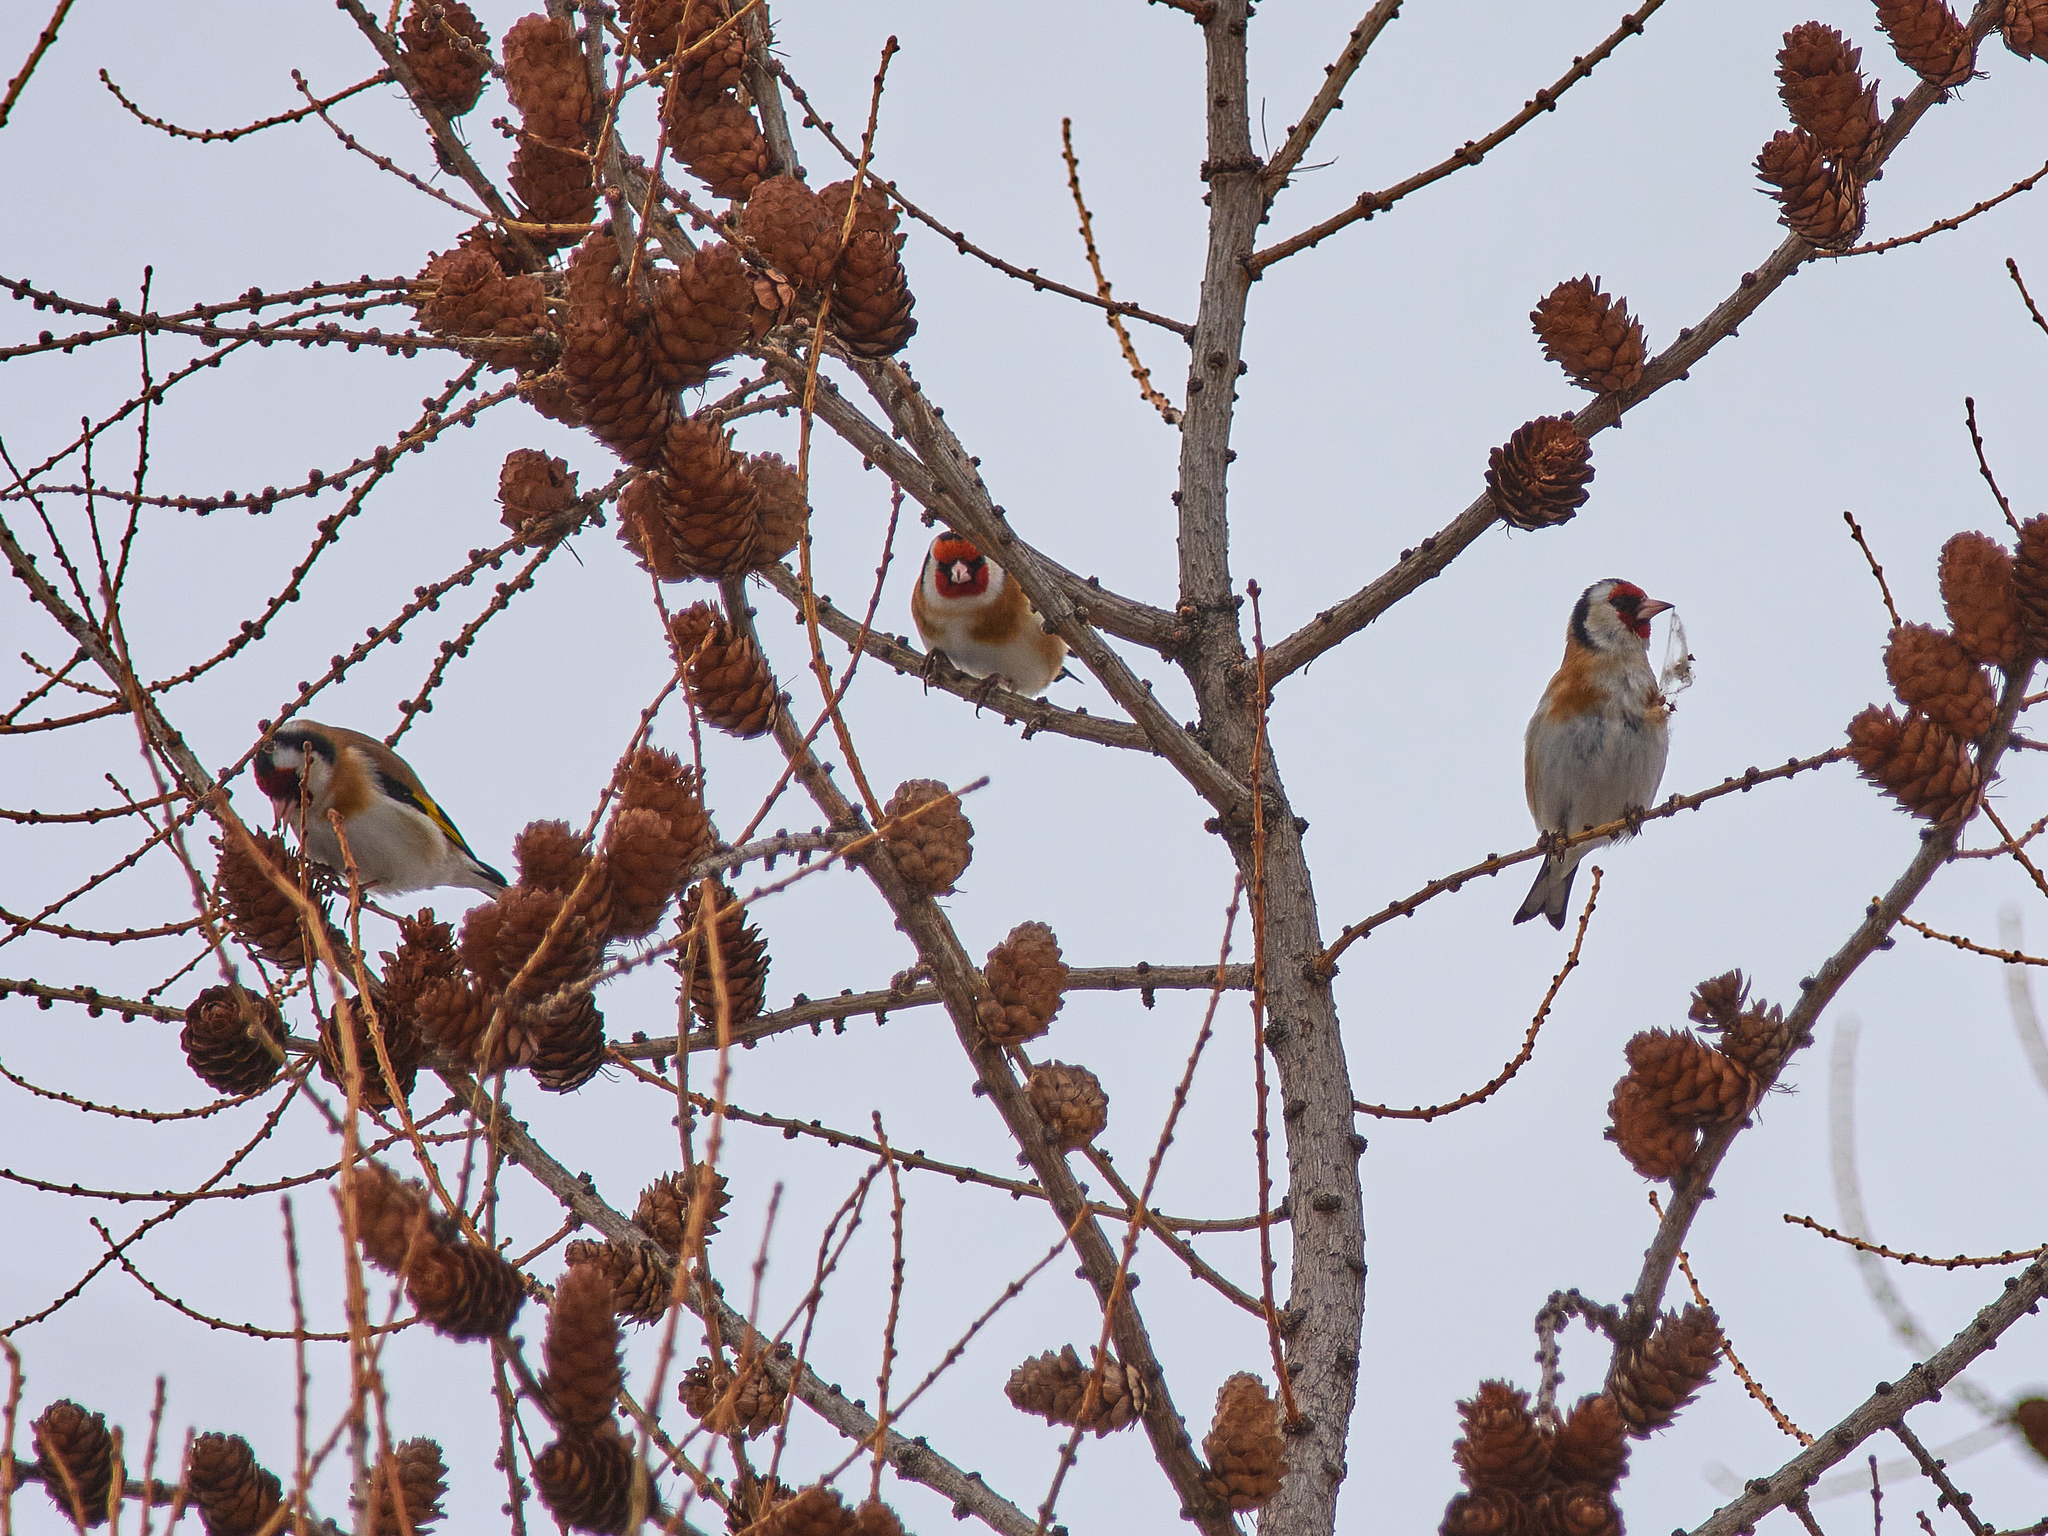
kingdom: Animalia
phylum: Chordata
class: Aves
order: Passeriformes
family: Fringillidae
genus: Carduelis
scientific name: Carduelis carduelis
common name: European goldfinch
